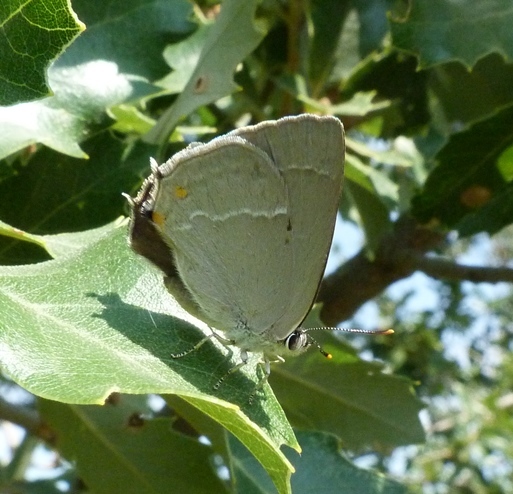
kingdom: Animalia
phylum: Arthropoda
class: Insecta
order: Lepidoptera
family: Lycaenidae
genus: Quercusia
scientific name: Quercusia quercus
